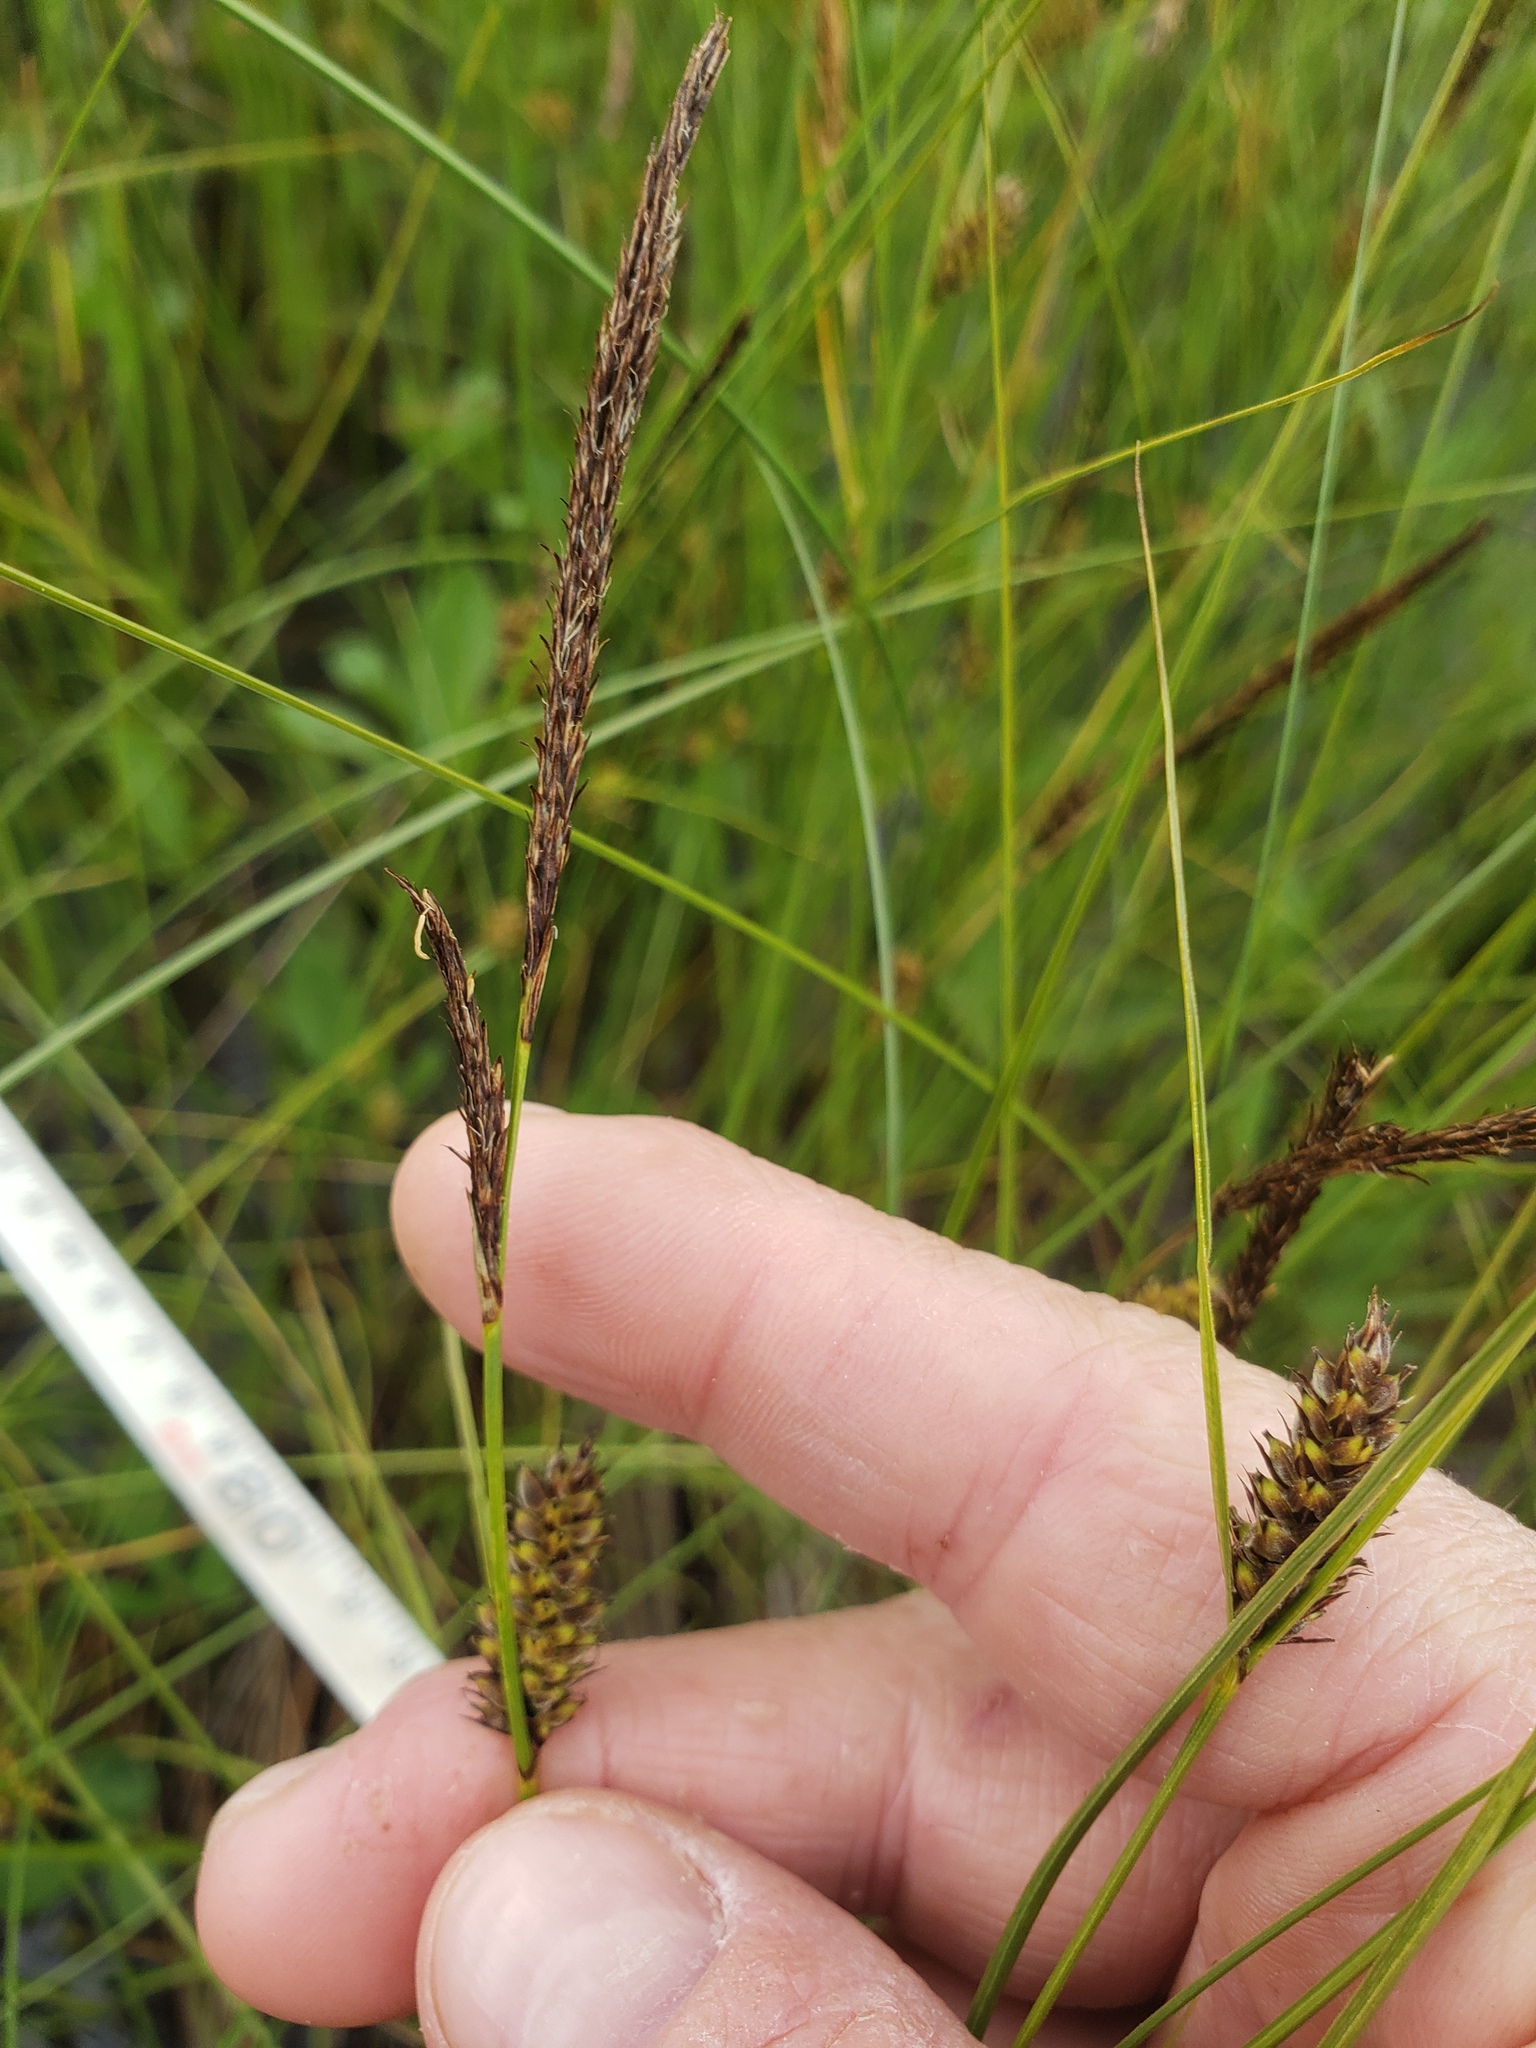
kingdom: Plantae
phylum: Tracheophyta
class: Liliopsida
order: Poales
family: Cyperaceae
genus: Carex
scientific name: Carex lasiocarpa
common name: Slender sedge
